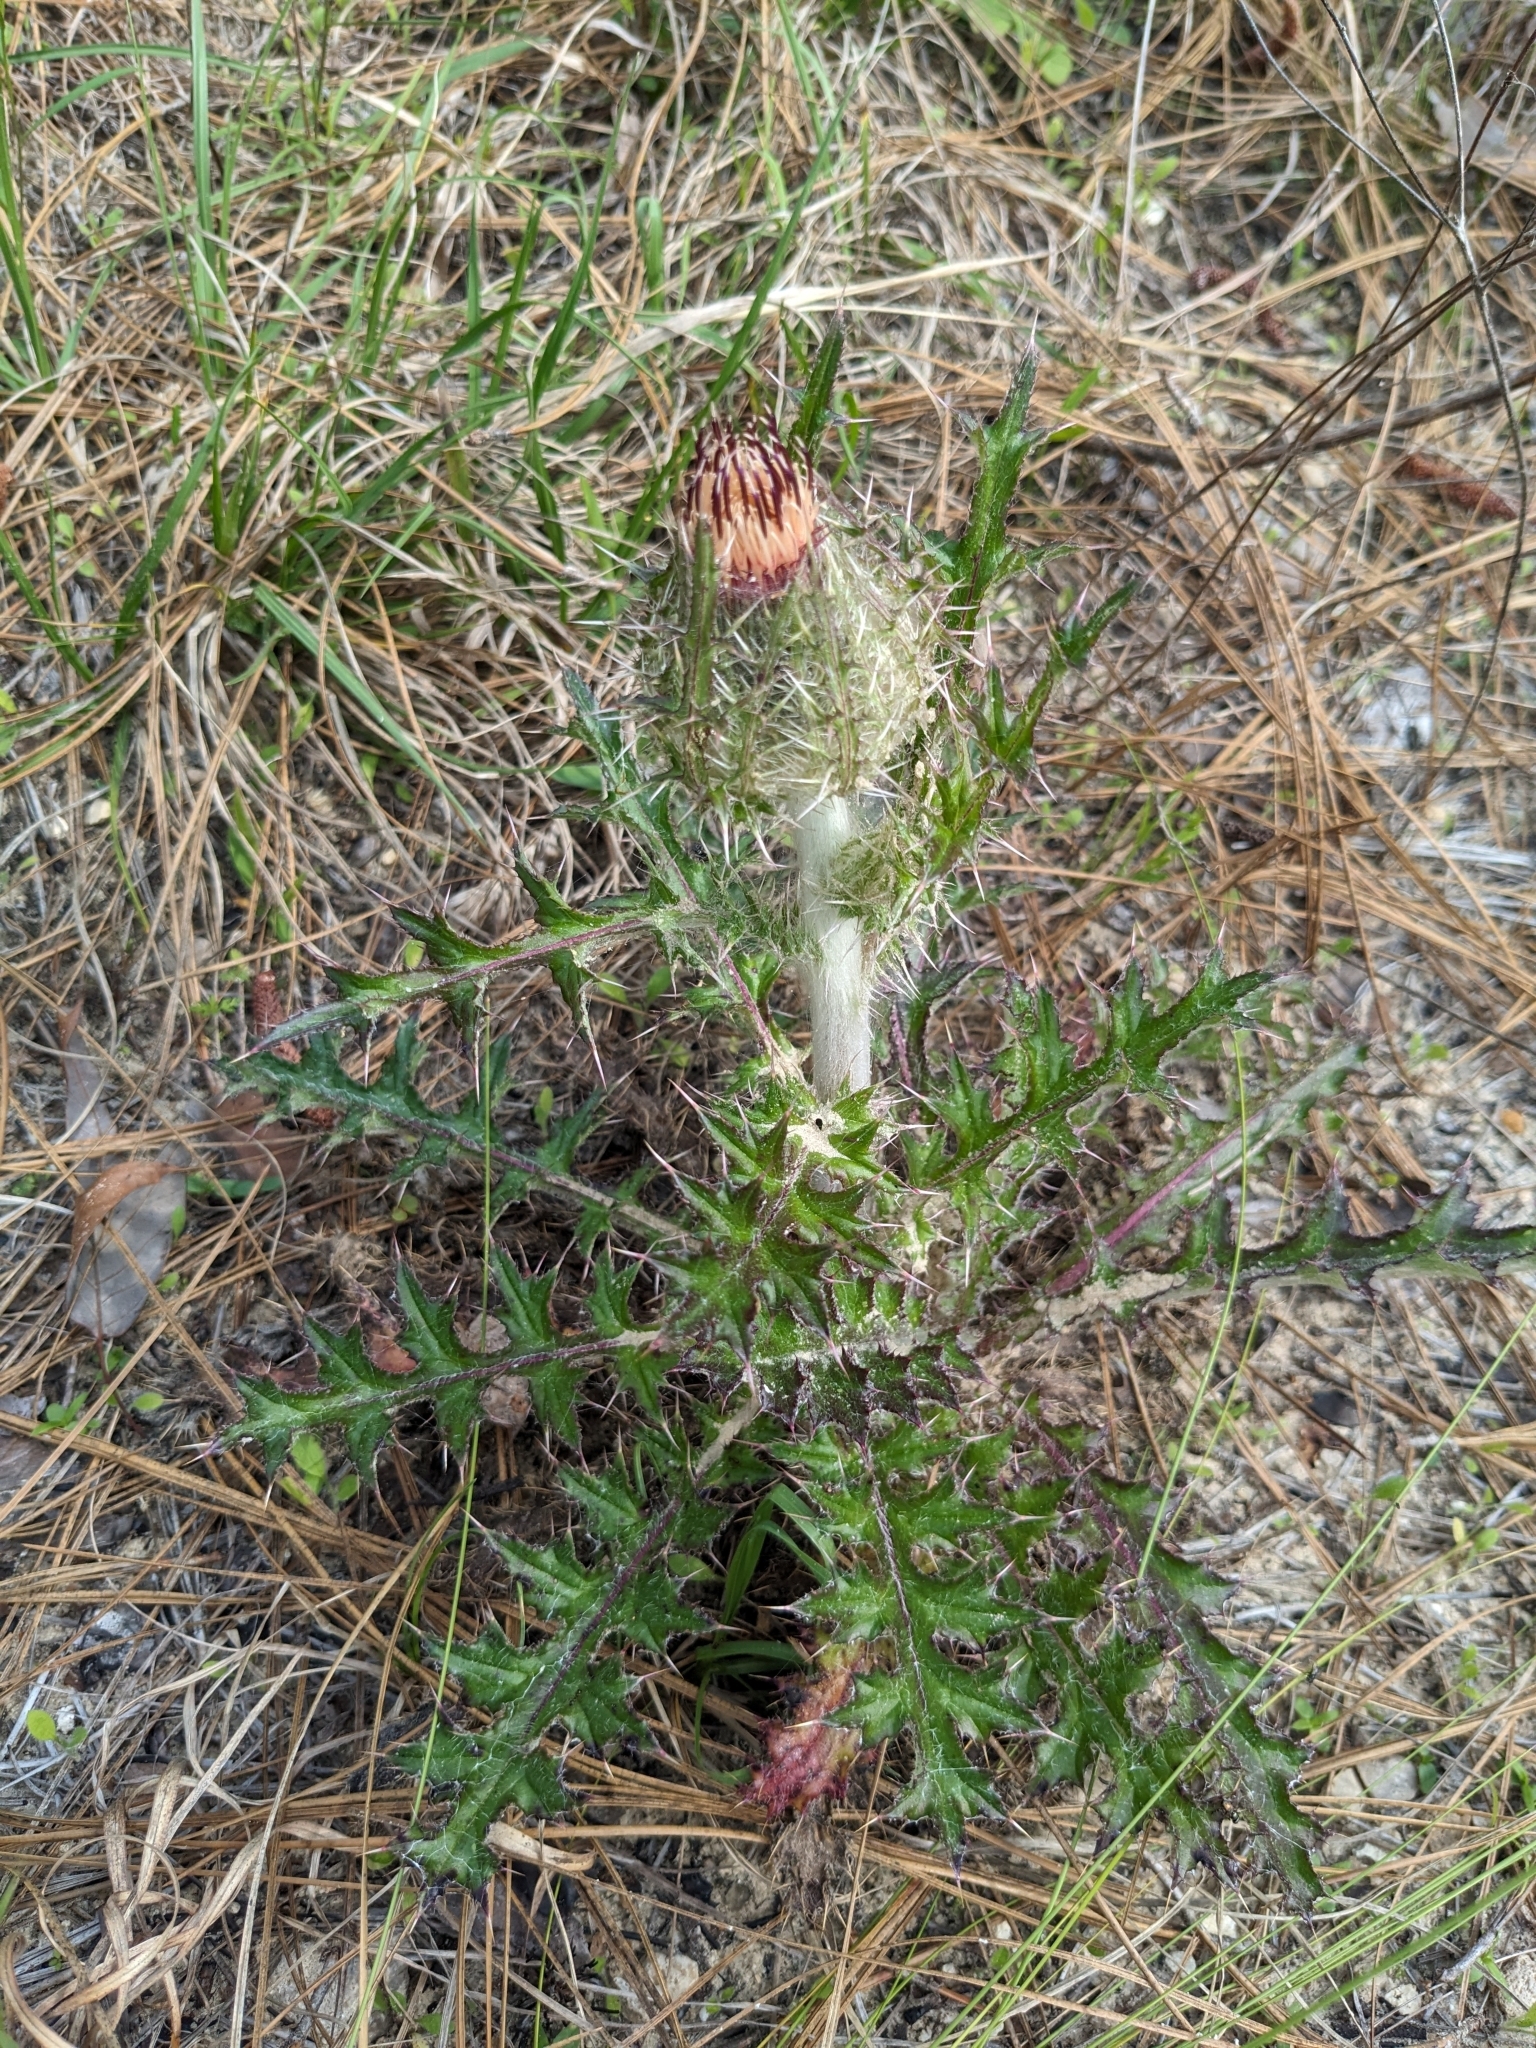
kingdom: Plantae
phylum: Tracheophyta
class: Magnoliopsida
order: Asterales
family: Asteraceae
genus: Cirsium
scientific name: Cirsium horridulum
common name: Bristly thistle
